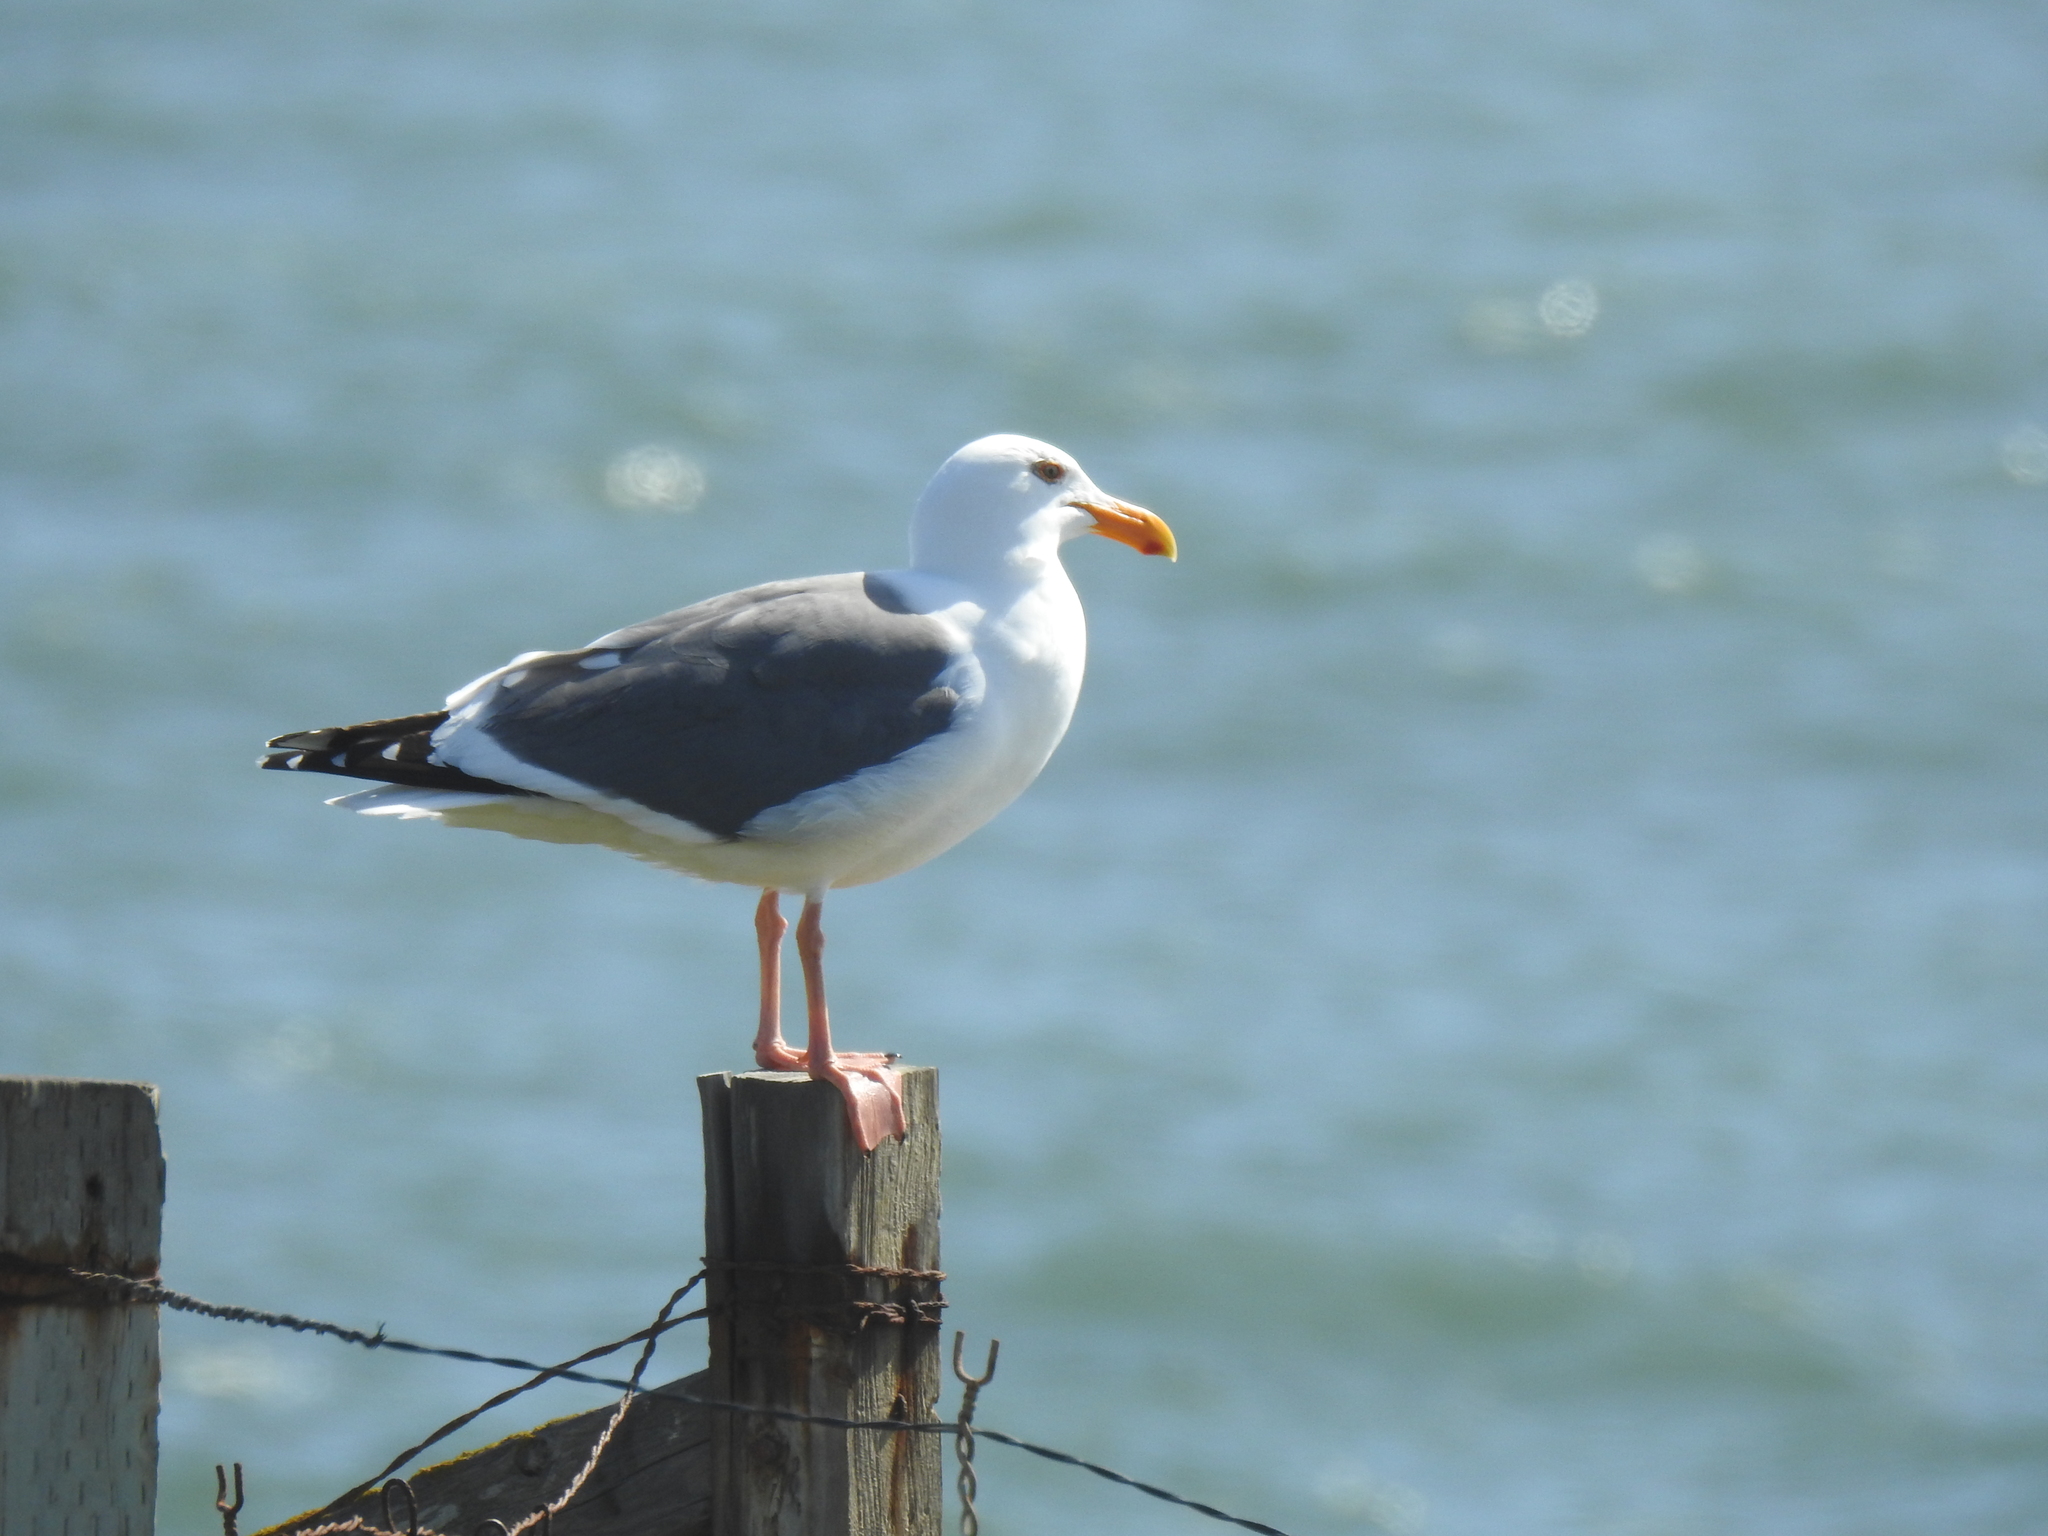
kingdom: Animalia
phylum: Chordata
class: Aves
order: Charadriiformes
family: Laridae
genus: Larus
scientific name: Larus occidentalis
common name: Western gull
